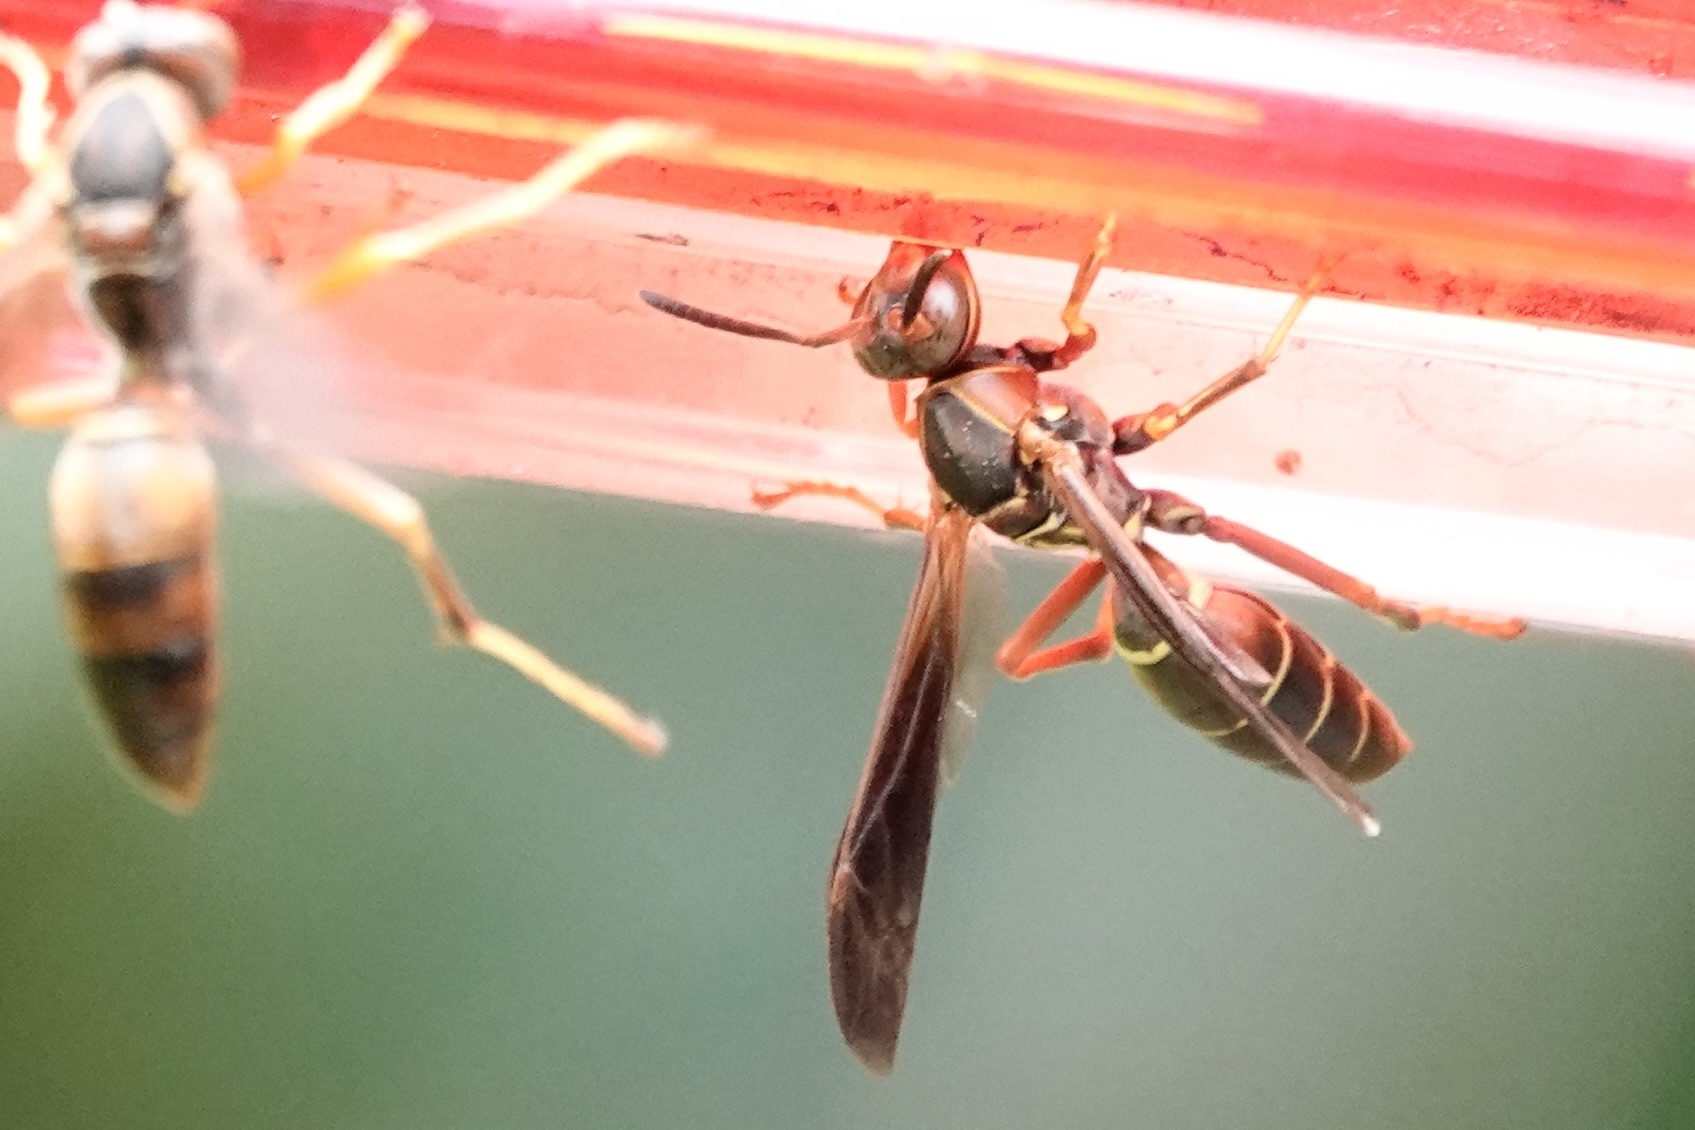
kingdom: Animalia
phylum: Arthropoda
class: Insecta
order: Hymenoptera
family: Eumenidae
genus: Polistes
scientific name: Polistes fuscatus
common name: Dark paper wasp
